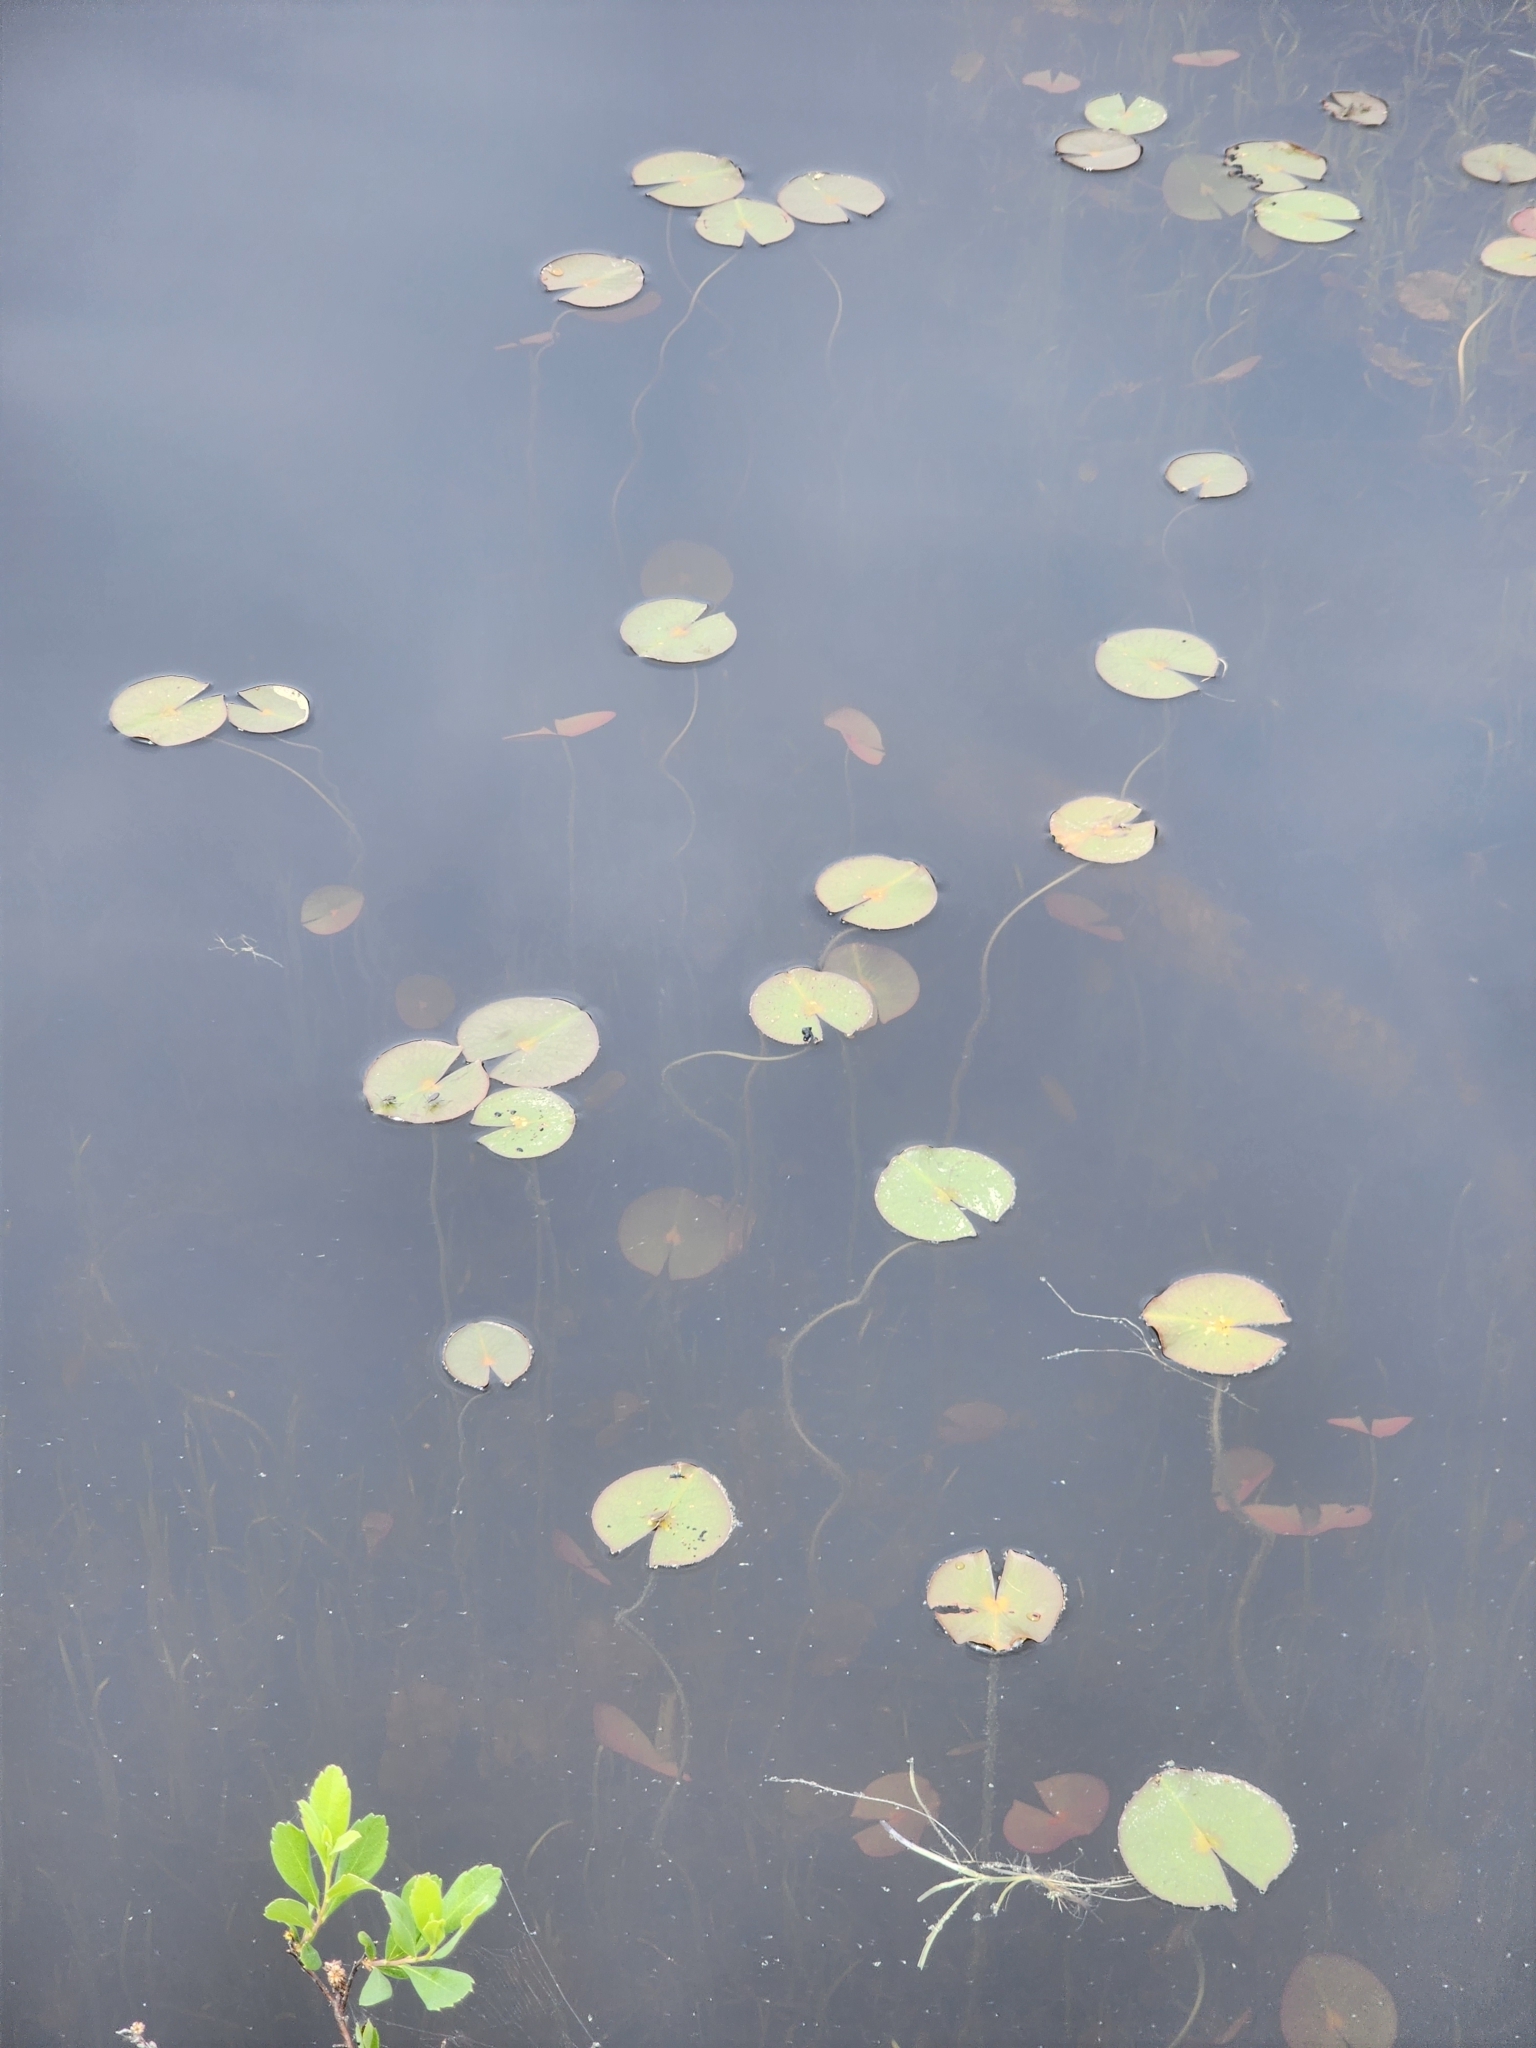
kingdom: Plantae
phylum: Tracheophyta
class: Magnoliopsida
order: Nymphaeales
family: Nymphaeaceae
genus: Nymphaea
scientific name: Nymphaea odorata
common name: Fragrant water-lily
